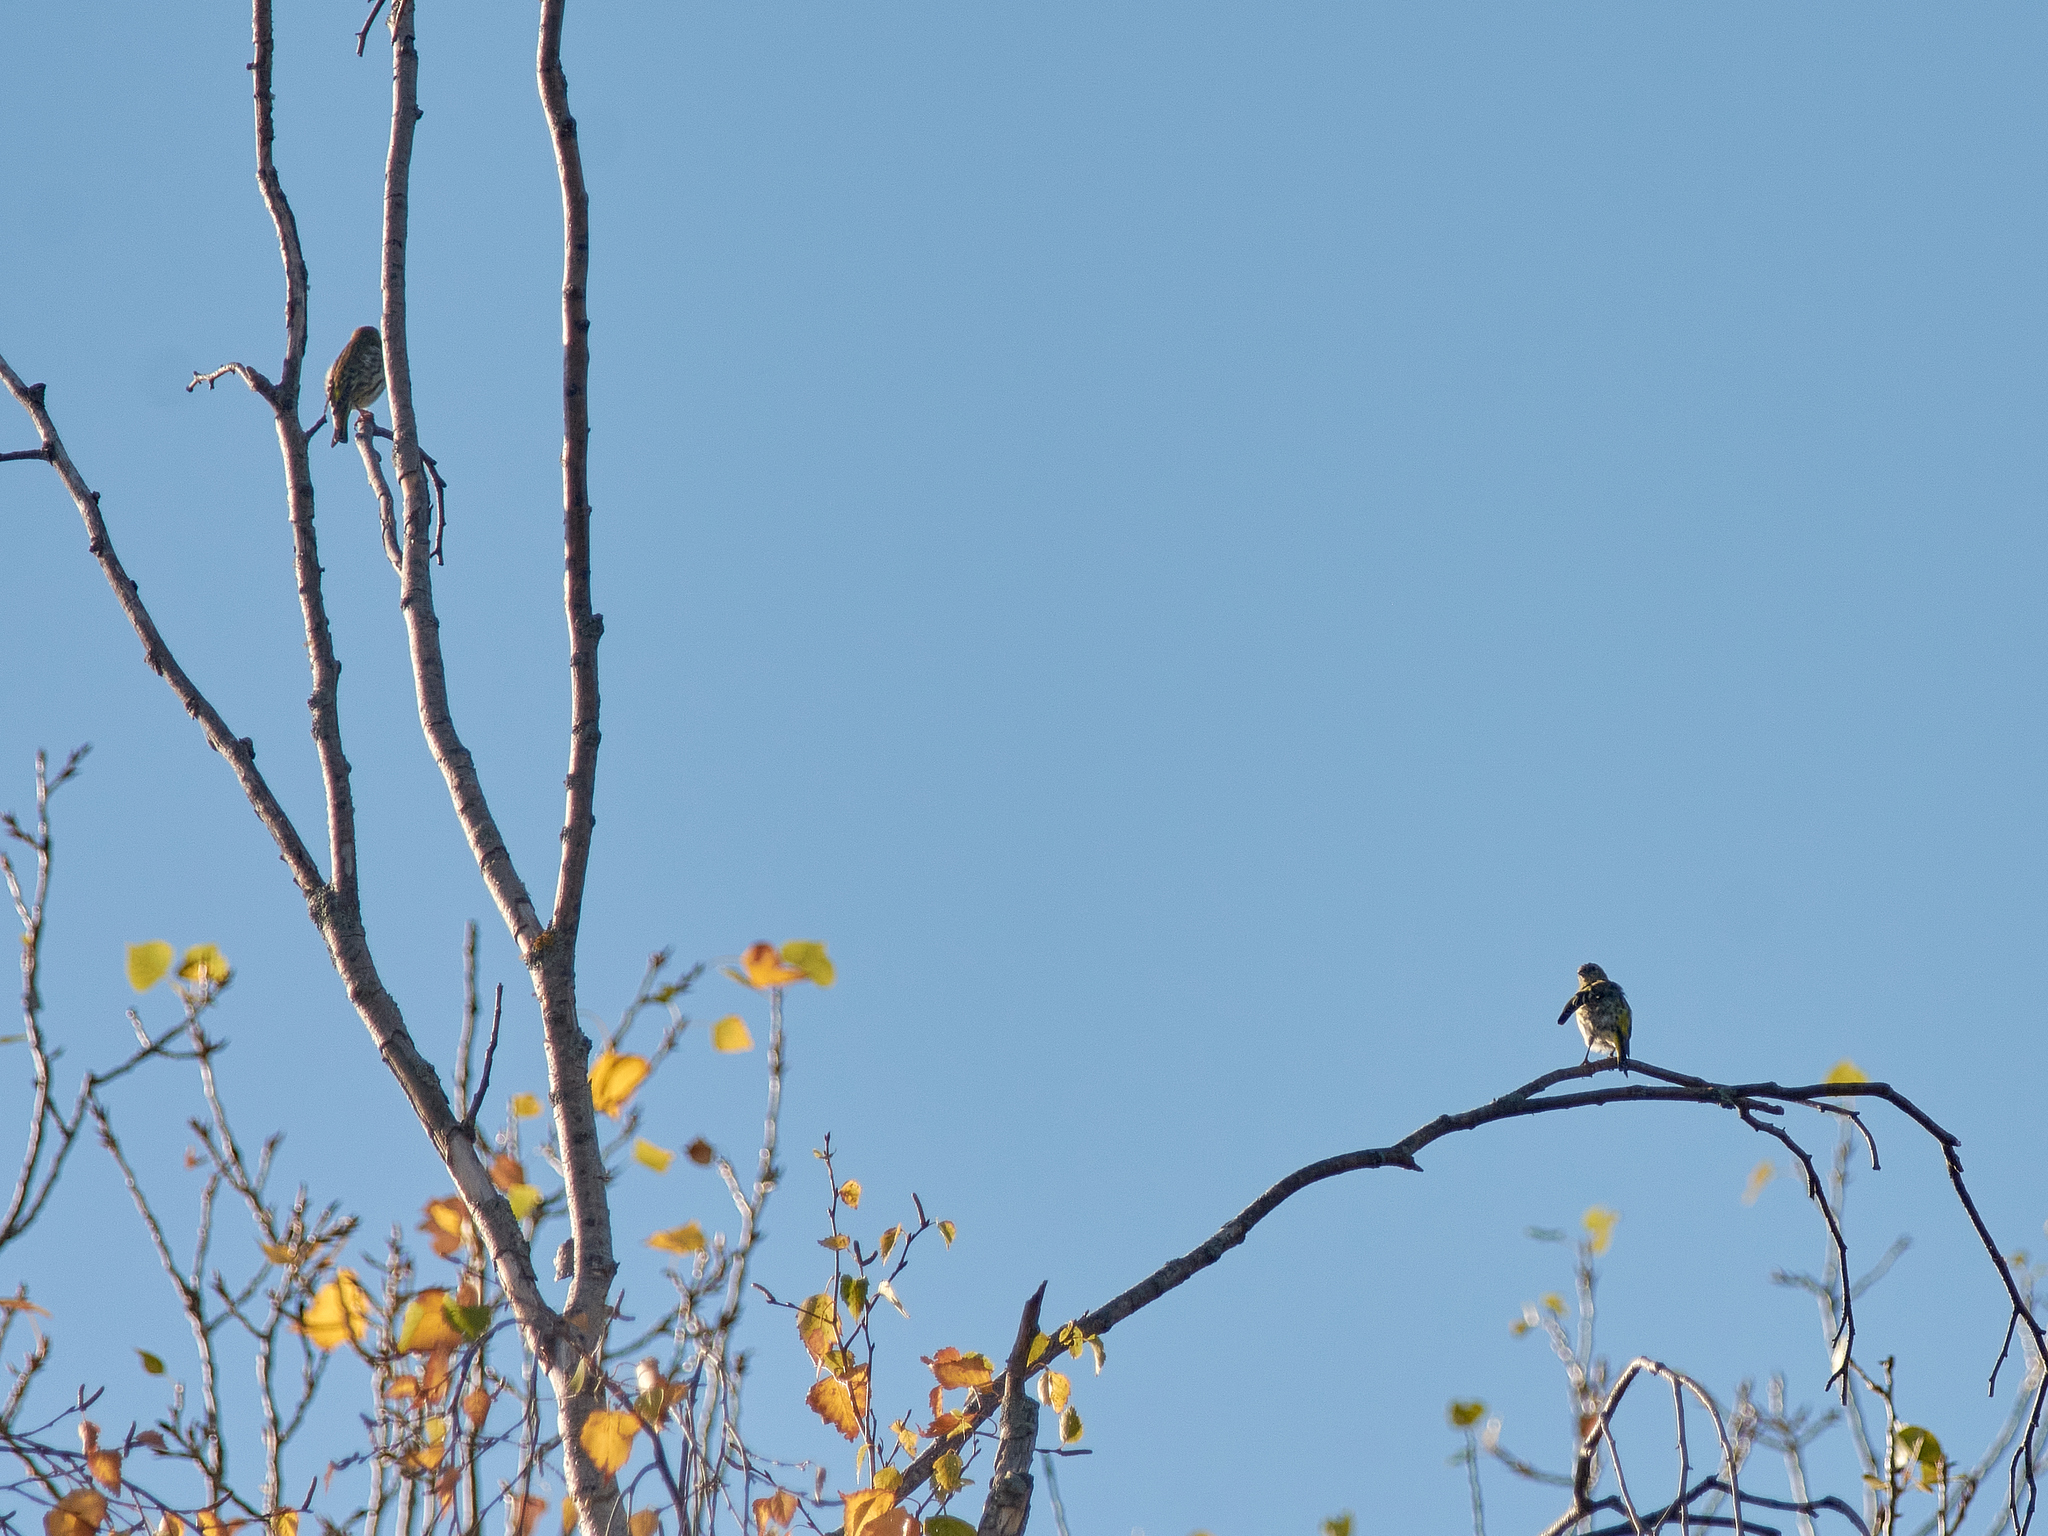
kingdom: Animalia
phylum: Chordata
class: Aves
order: Passeriformes
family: Fringillidae
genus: Spinus
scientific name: Spinus spinus
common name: Eurasian siskin
